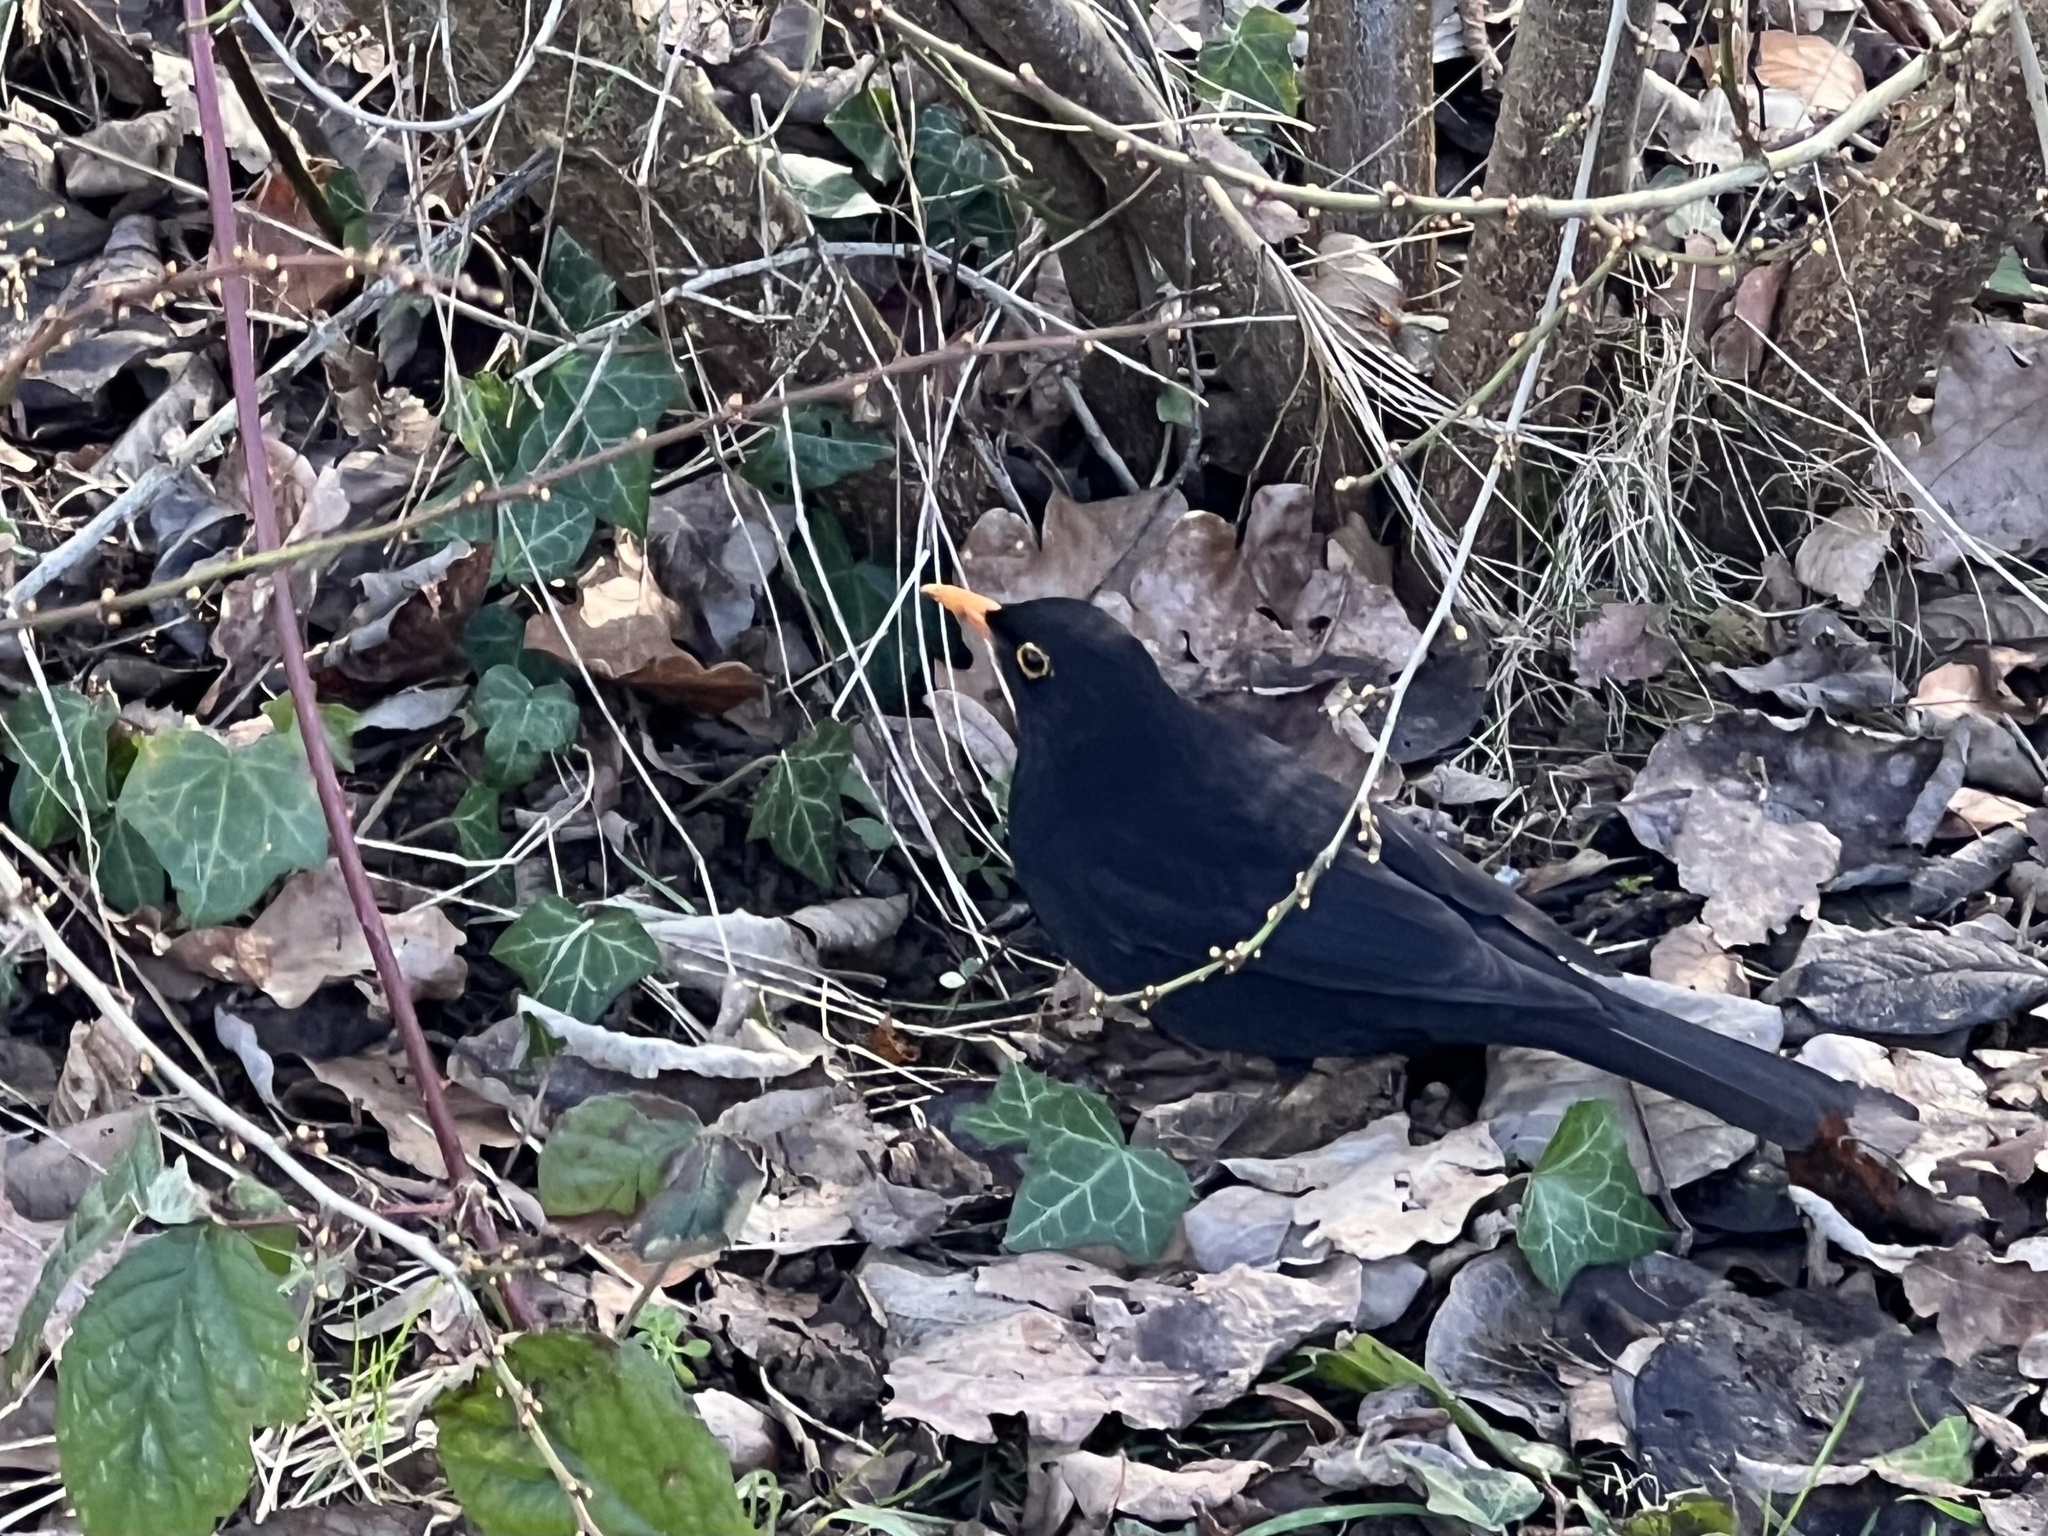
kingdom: Animalia
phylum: Chordata
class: Aves
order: Passeriformes
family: Turdidae
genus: Turdus
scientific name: Turdus merula
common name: Common blackbird
